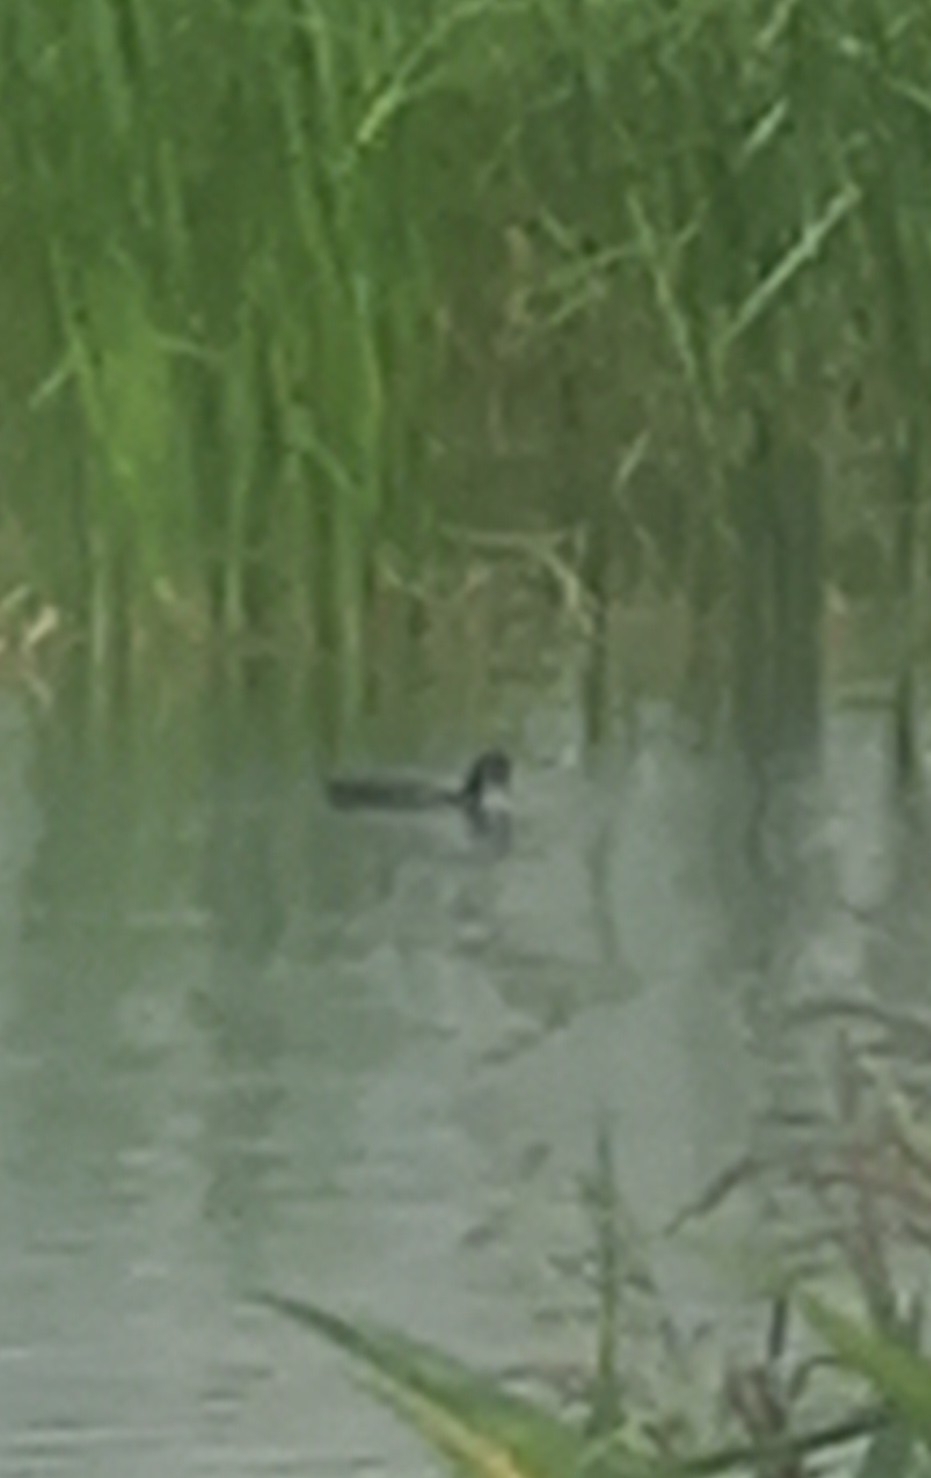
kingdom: Animalia
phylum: Chordata
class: Aves
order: Gruiformes
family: Rallidae
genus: Fulica
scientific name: Fulica atra
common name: Eurasian coot
